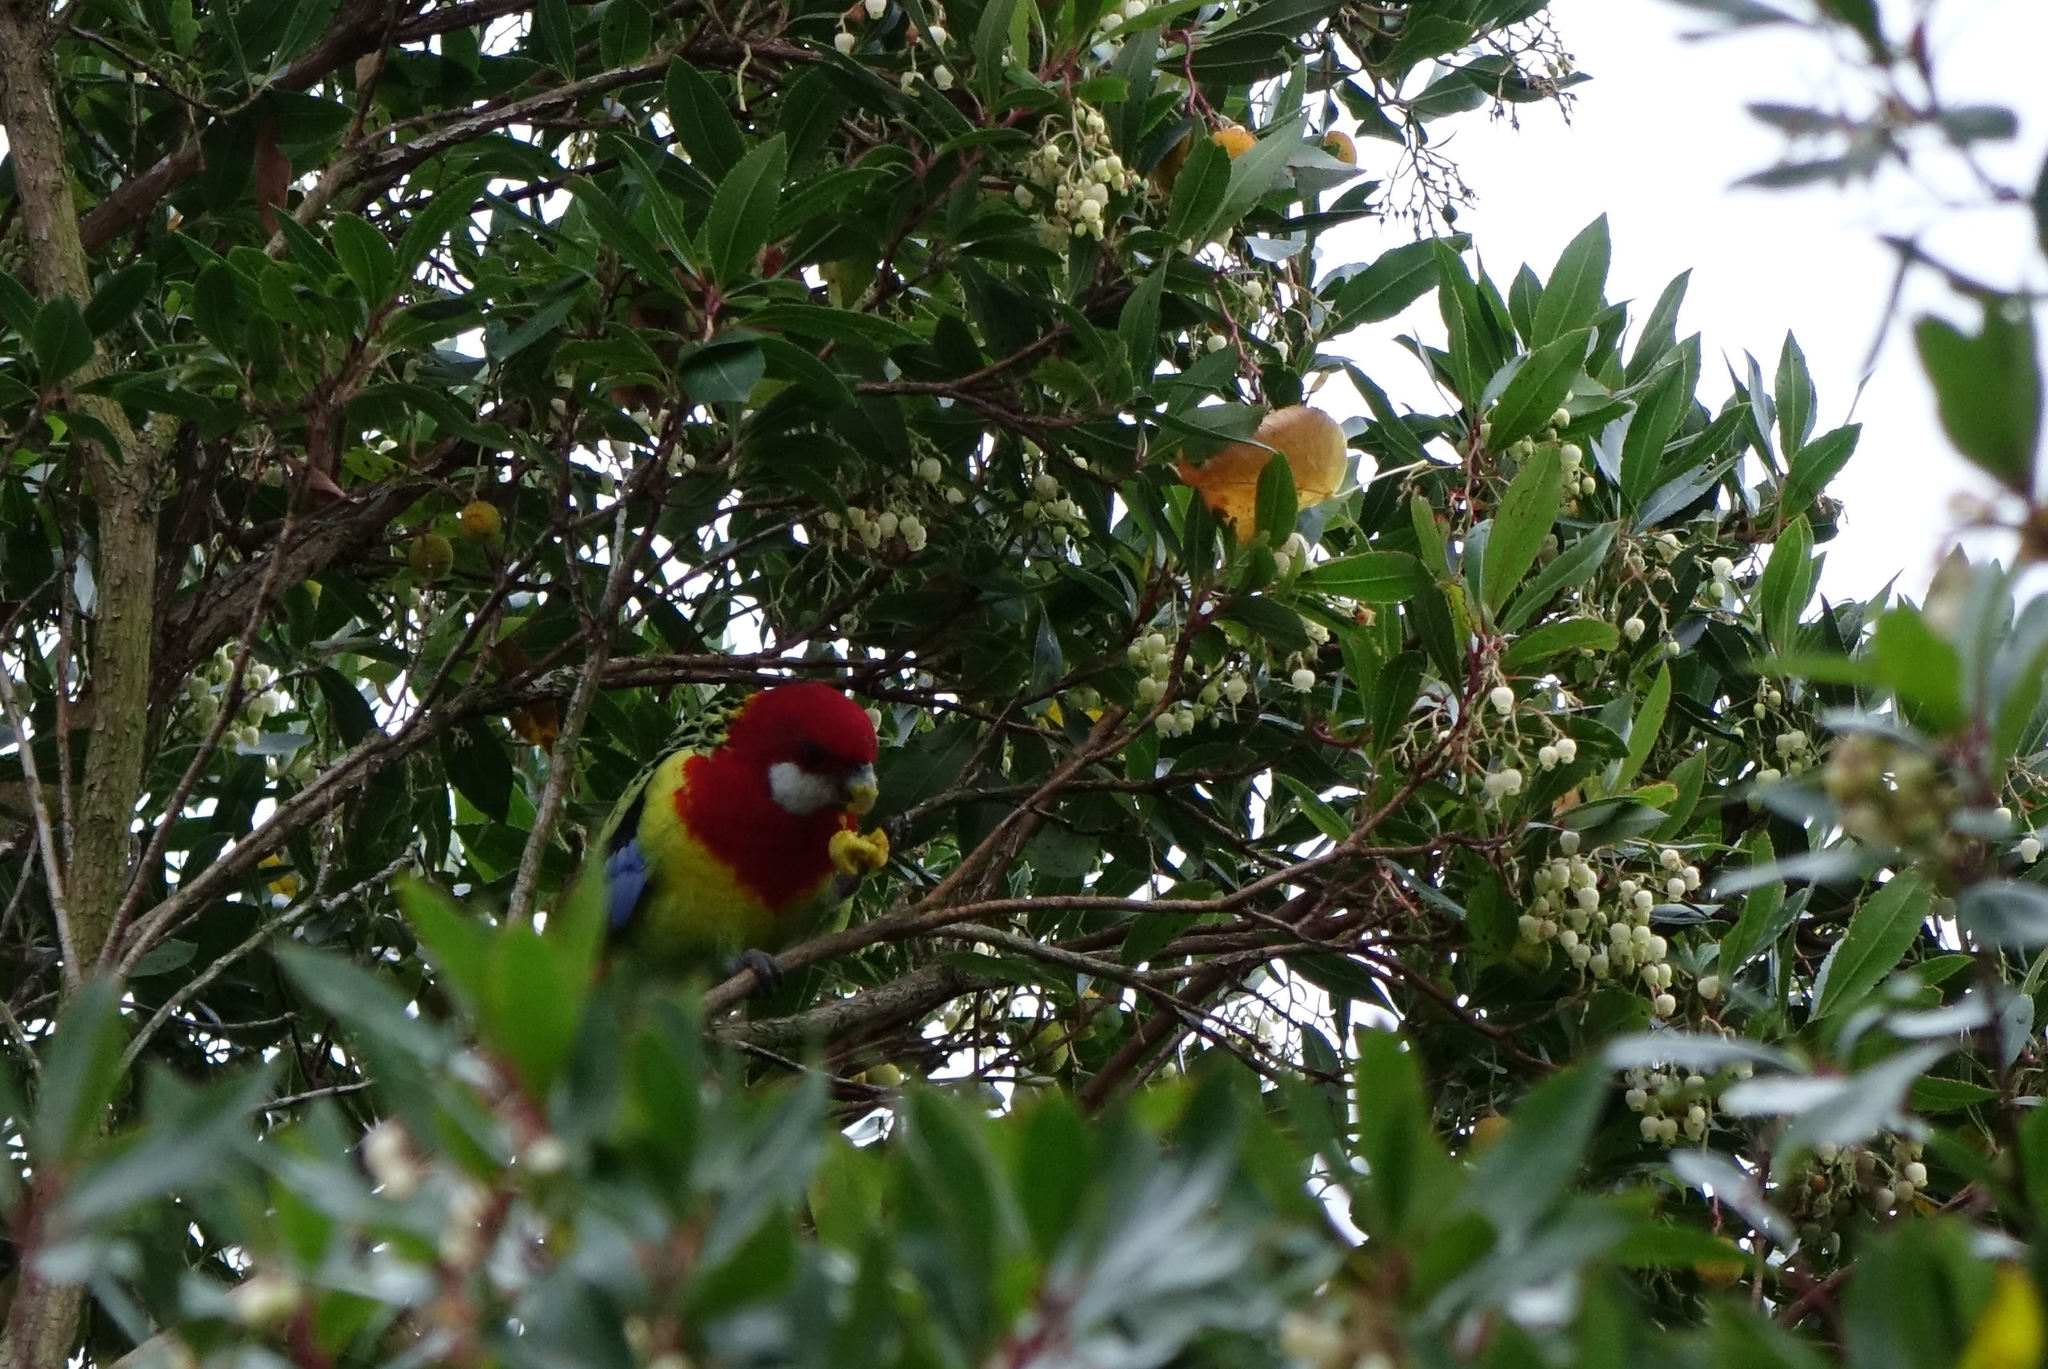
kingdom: Animalia
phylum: Chordata
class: Aves
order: Psittaciformes
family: Psittacidae
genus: Platycercus
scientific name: Platycercus eximius
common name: Eastern rosella
